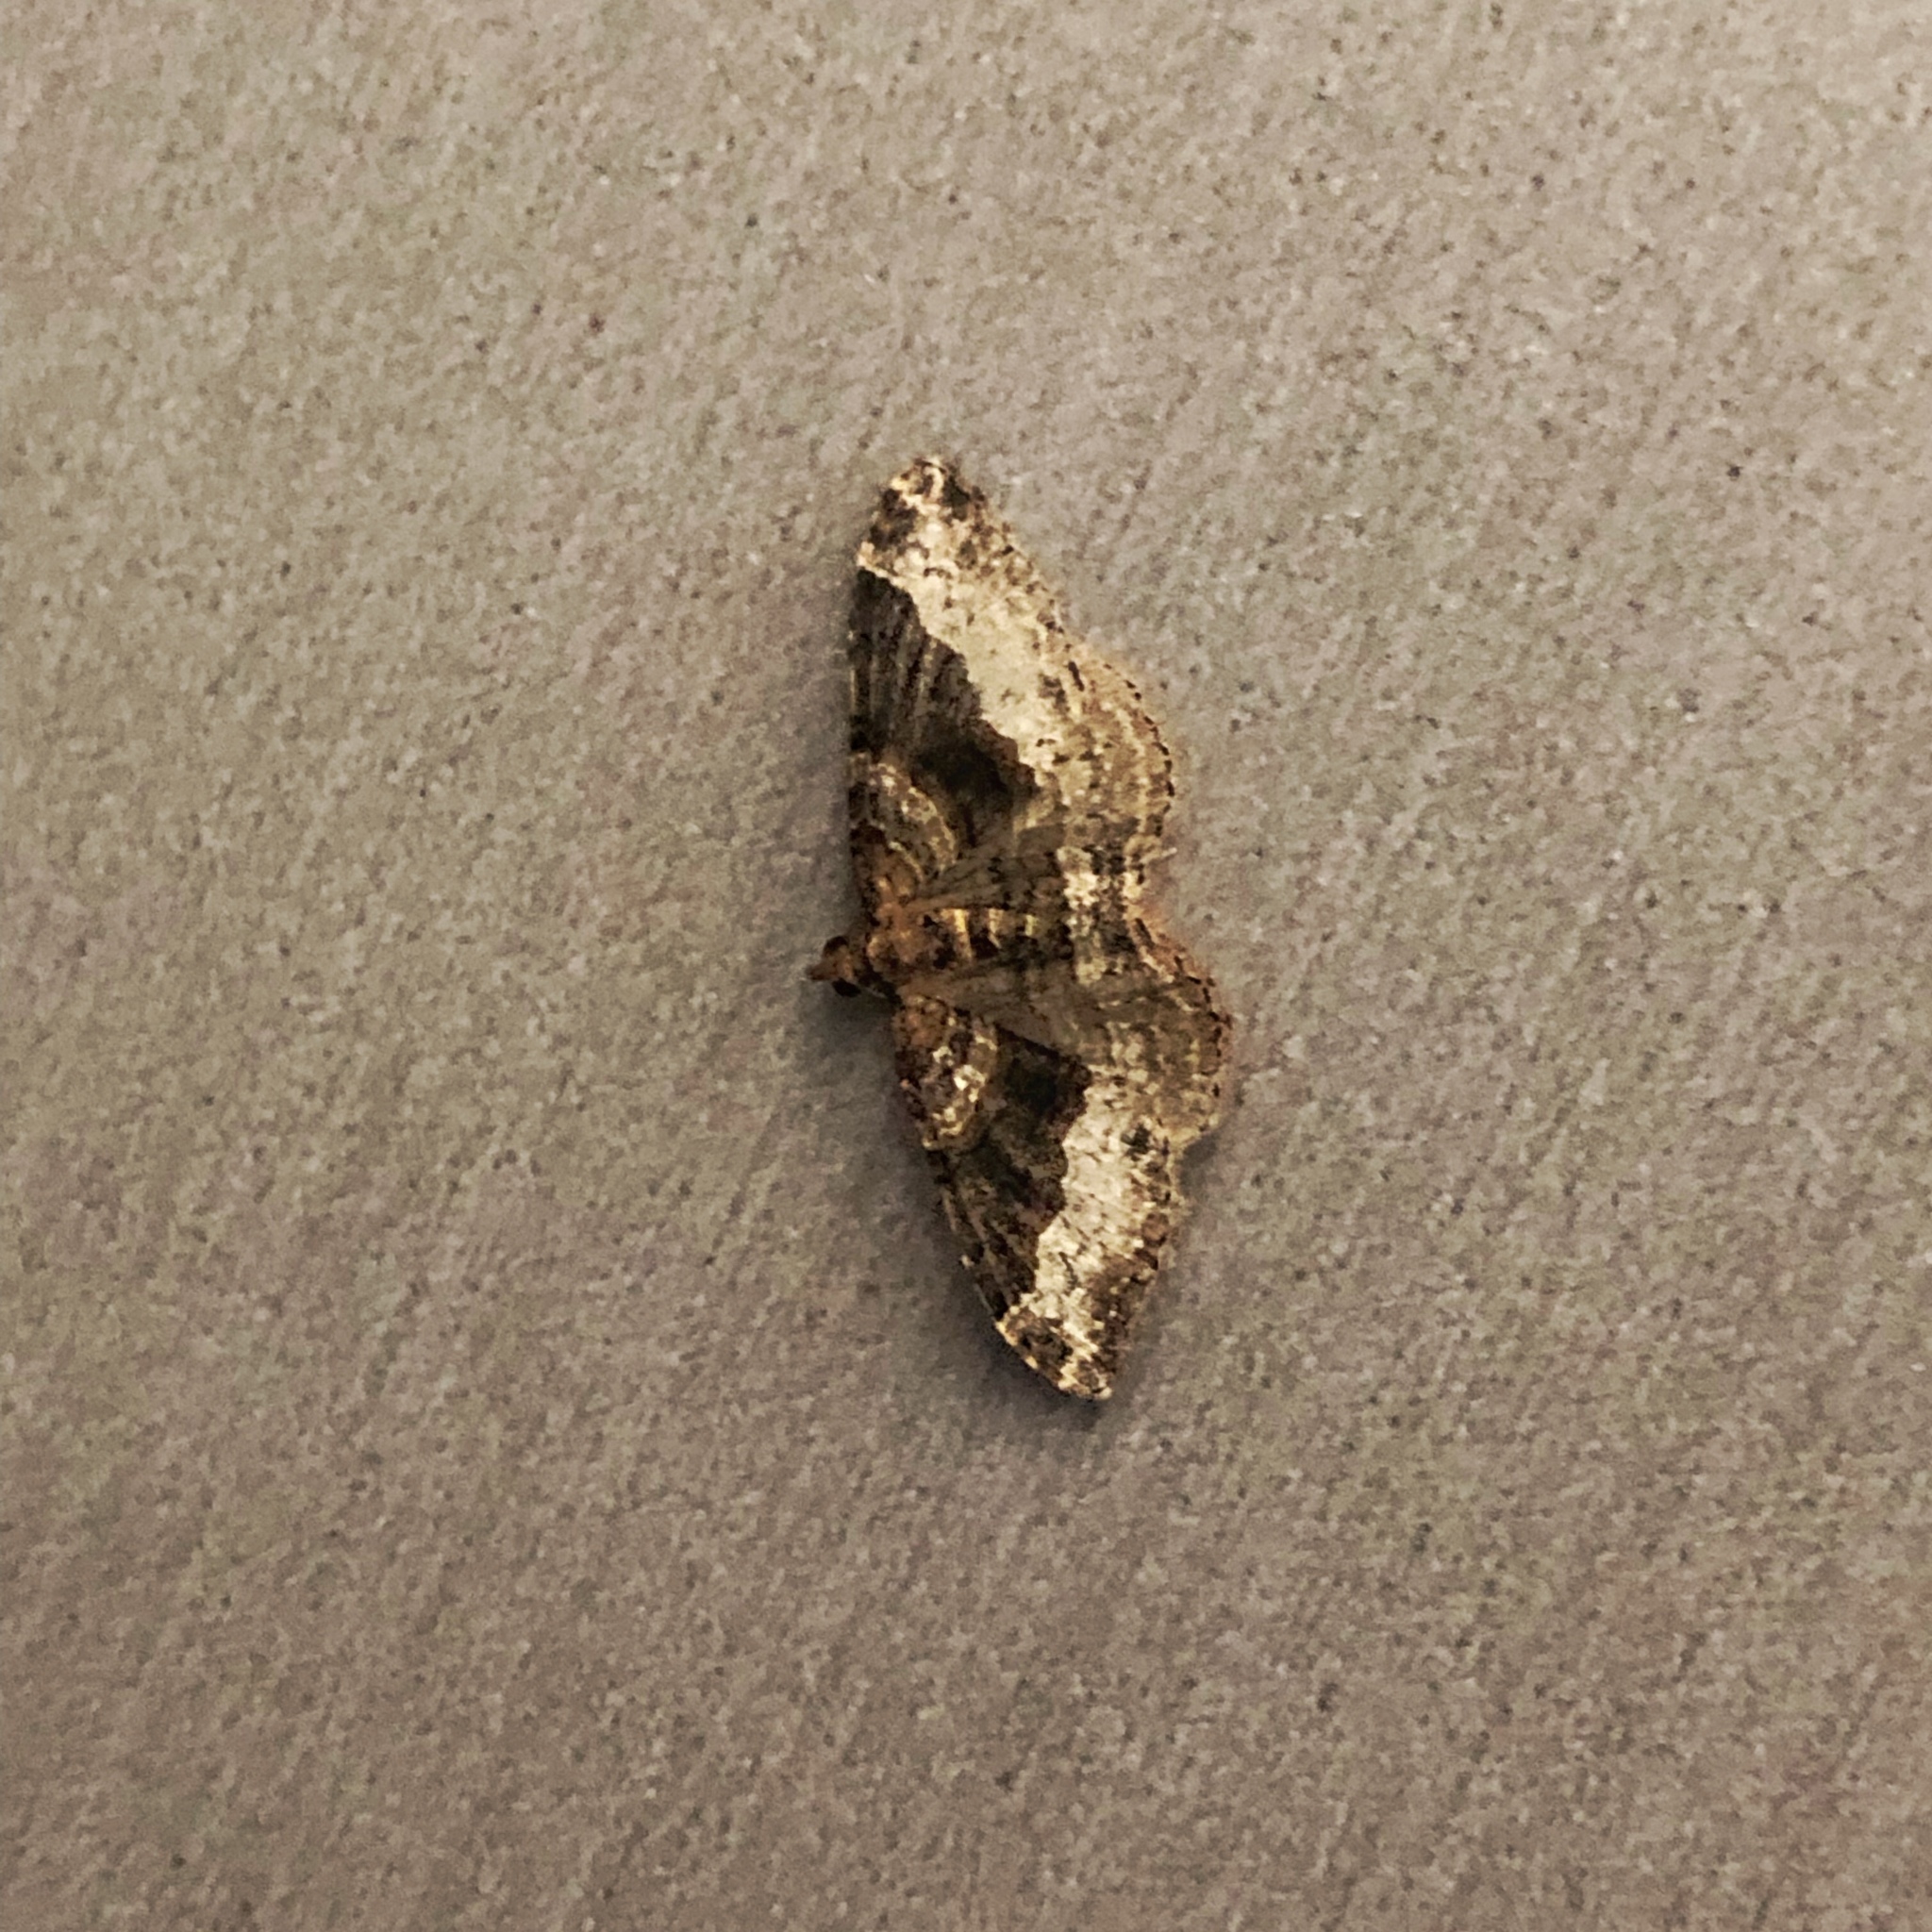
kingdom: Animalia
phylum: Arthropoda
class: Insecta
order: Lepidoptera
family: Geometridae
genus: Epyaxa
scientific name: Epyaxa lucidata
